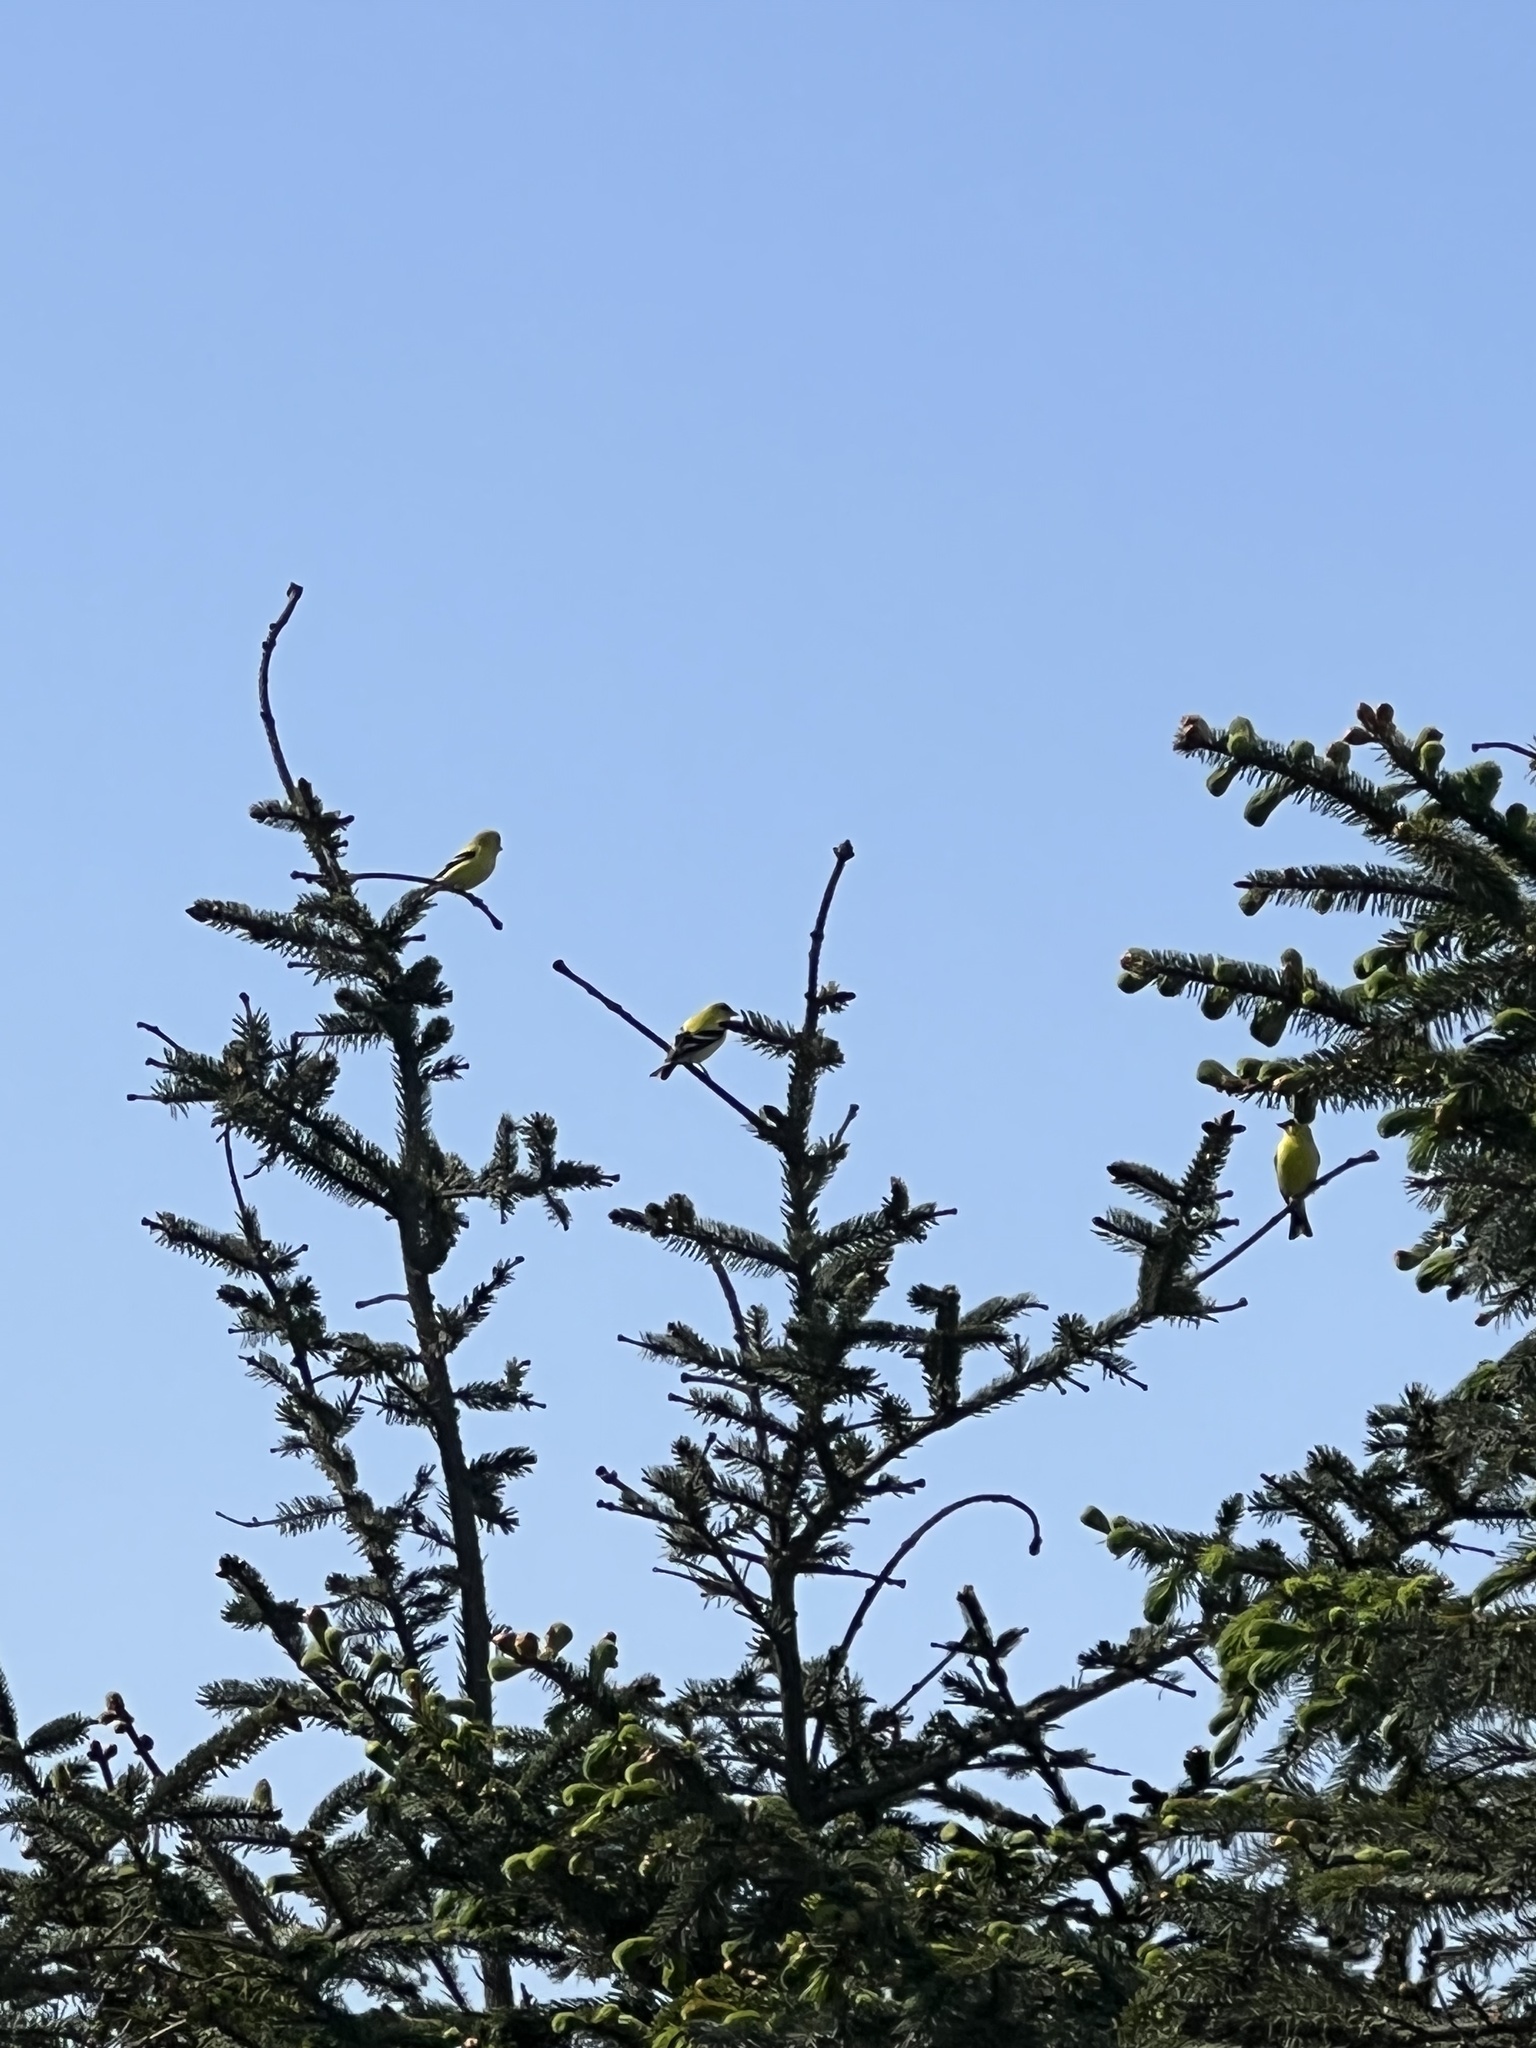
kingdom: Animalia
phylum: Chordata
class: Aves
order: Passeriformes
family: Fringillidae
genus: Spinus
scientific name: Spinus tristis
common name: American goldfinch
